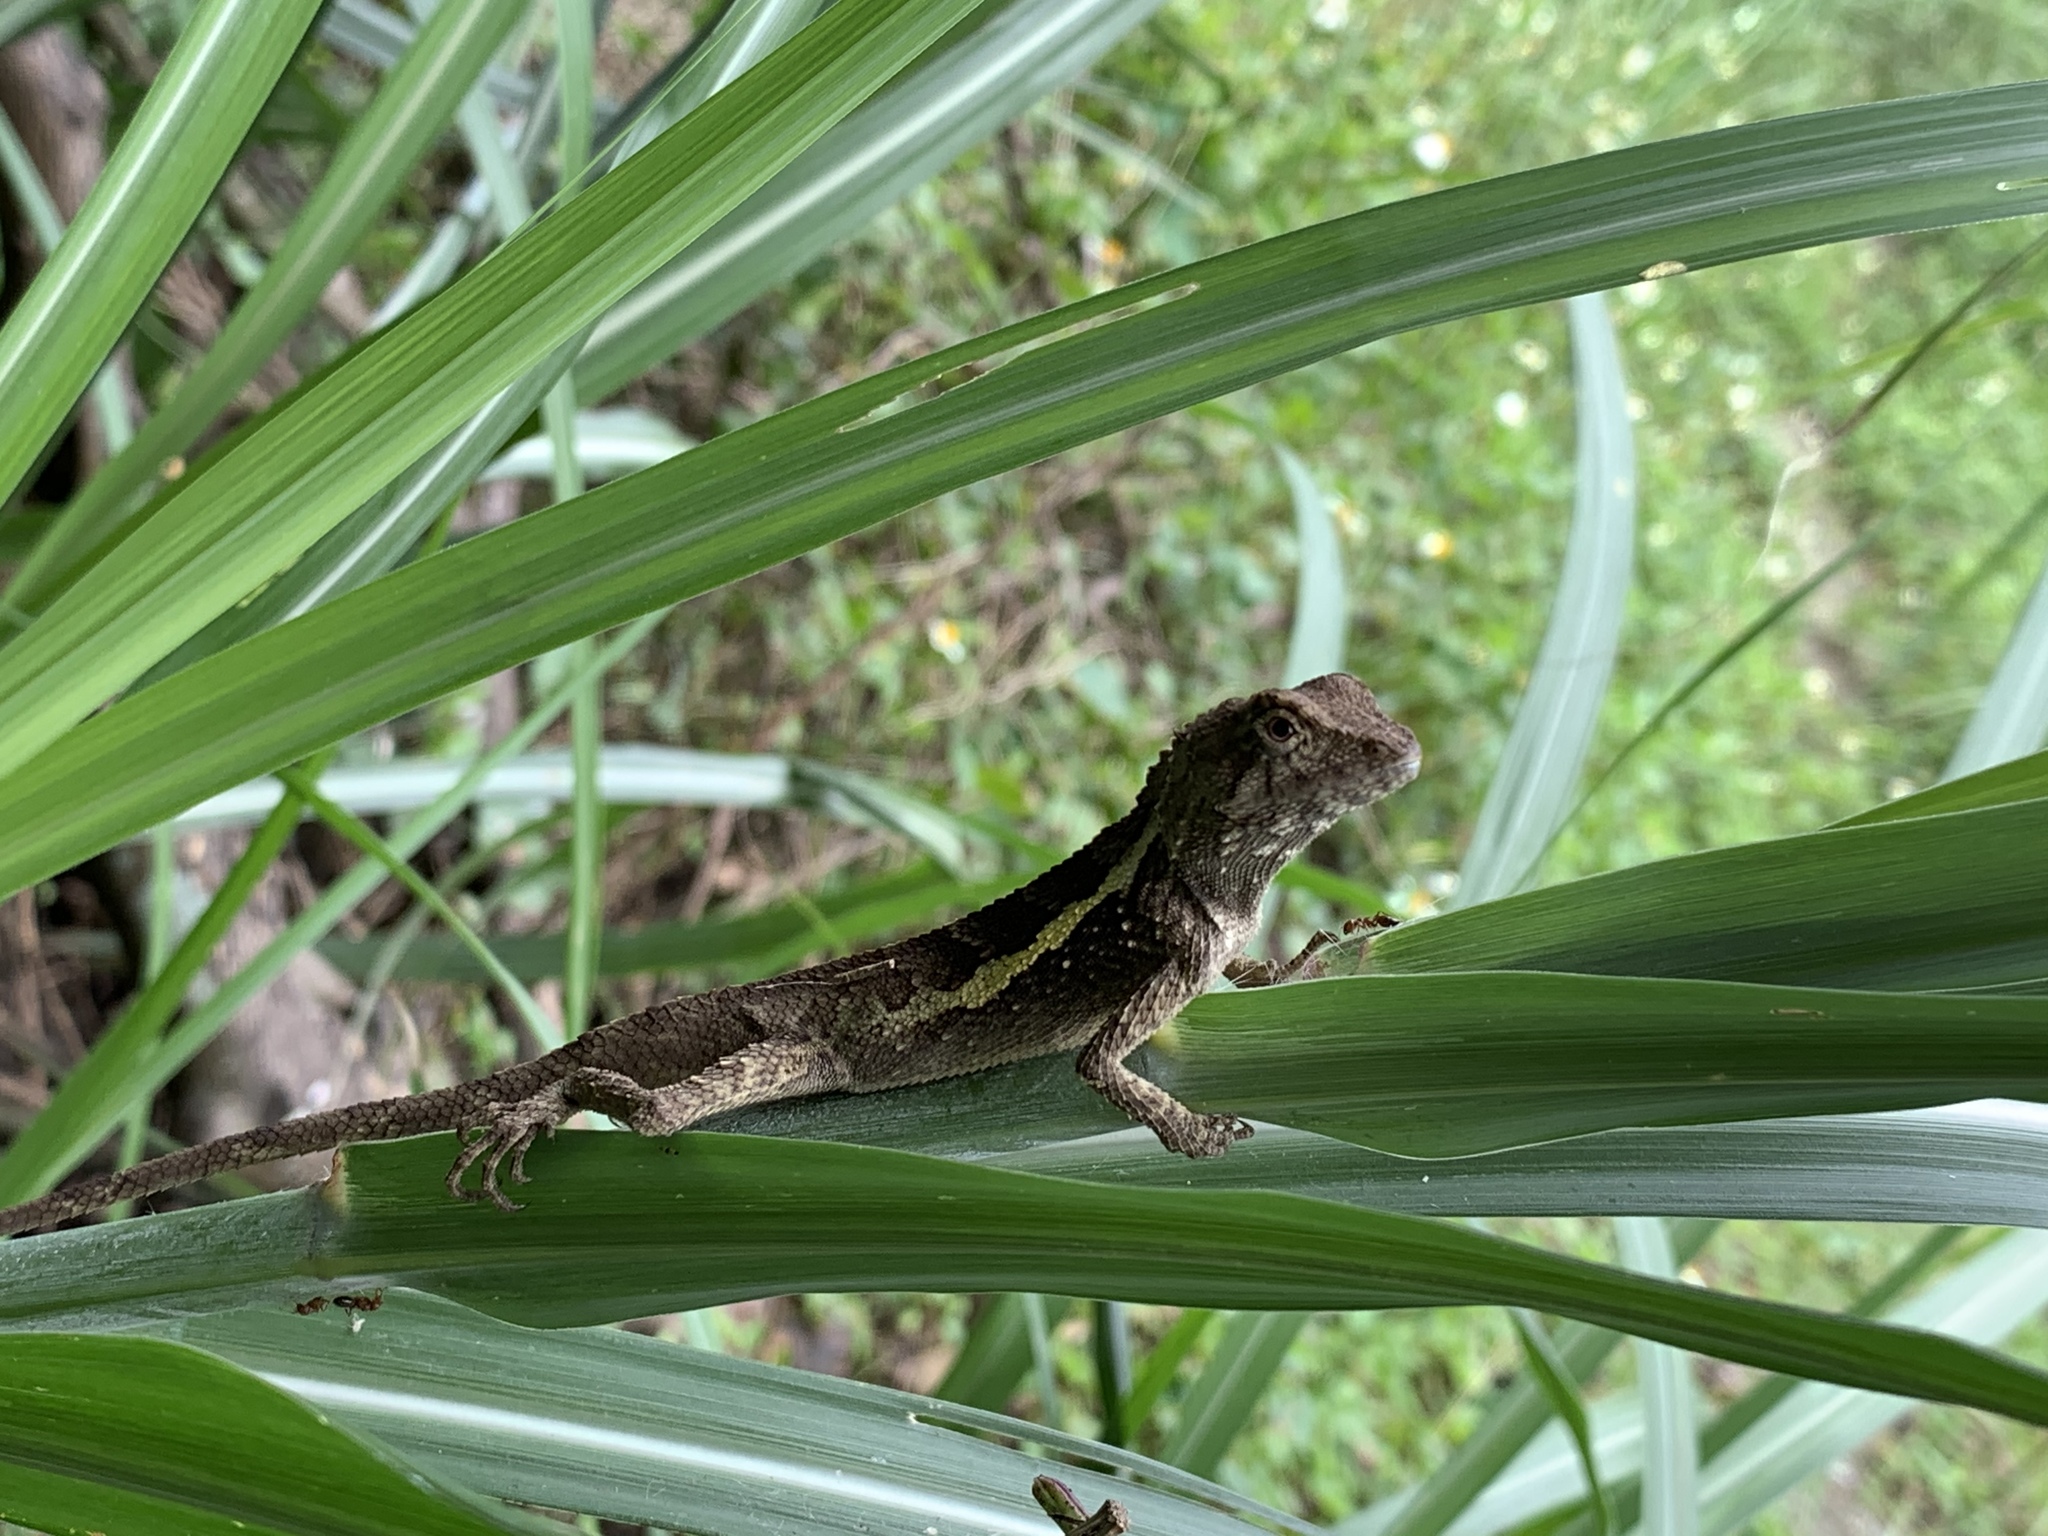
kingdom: Animalia
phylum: Chordata
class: Squamata
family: Agamidae
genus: Diploderma
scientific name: Diploderma swinhonis
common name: Taiwan japalure
